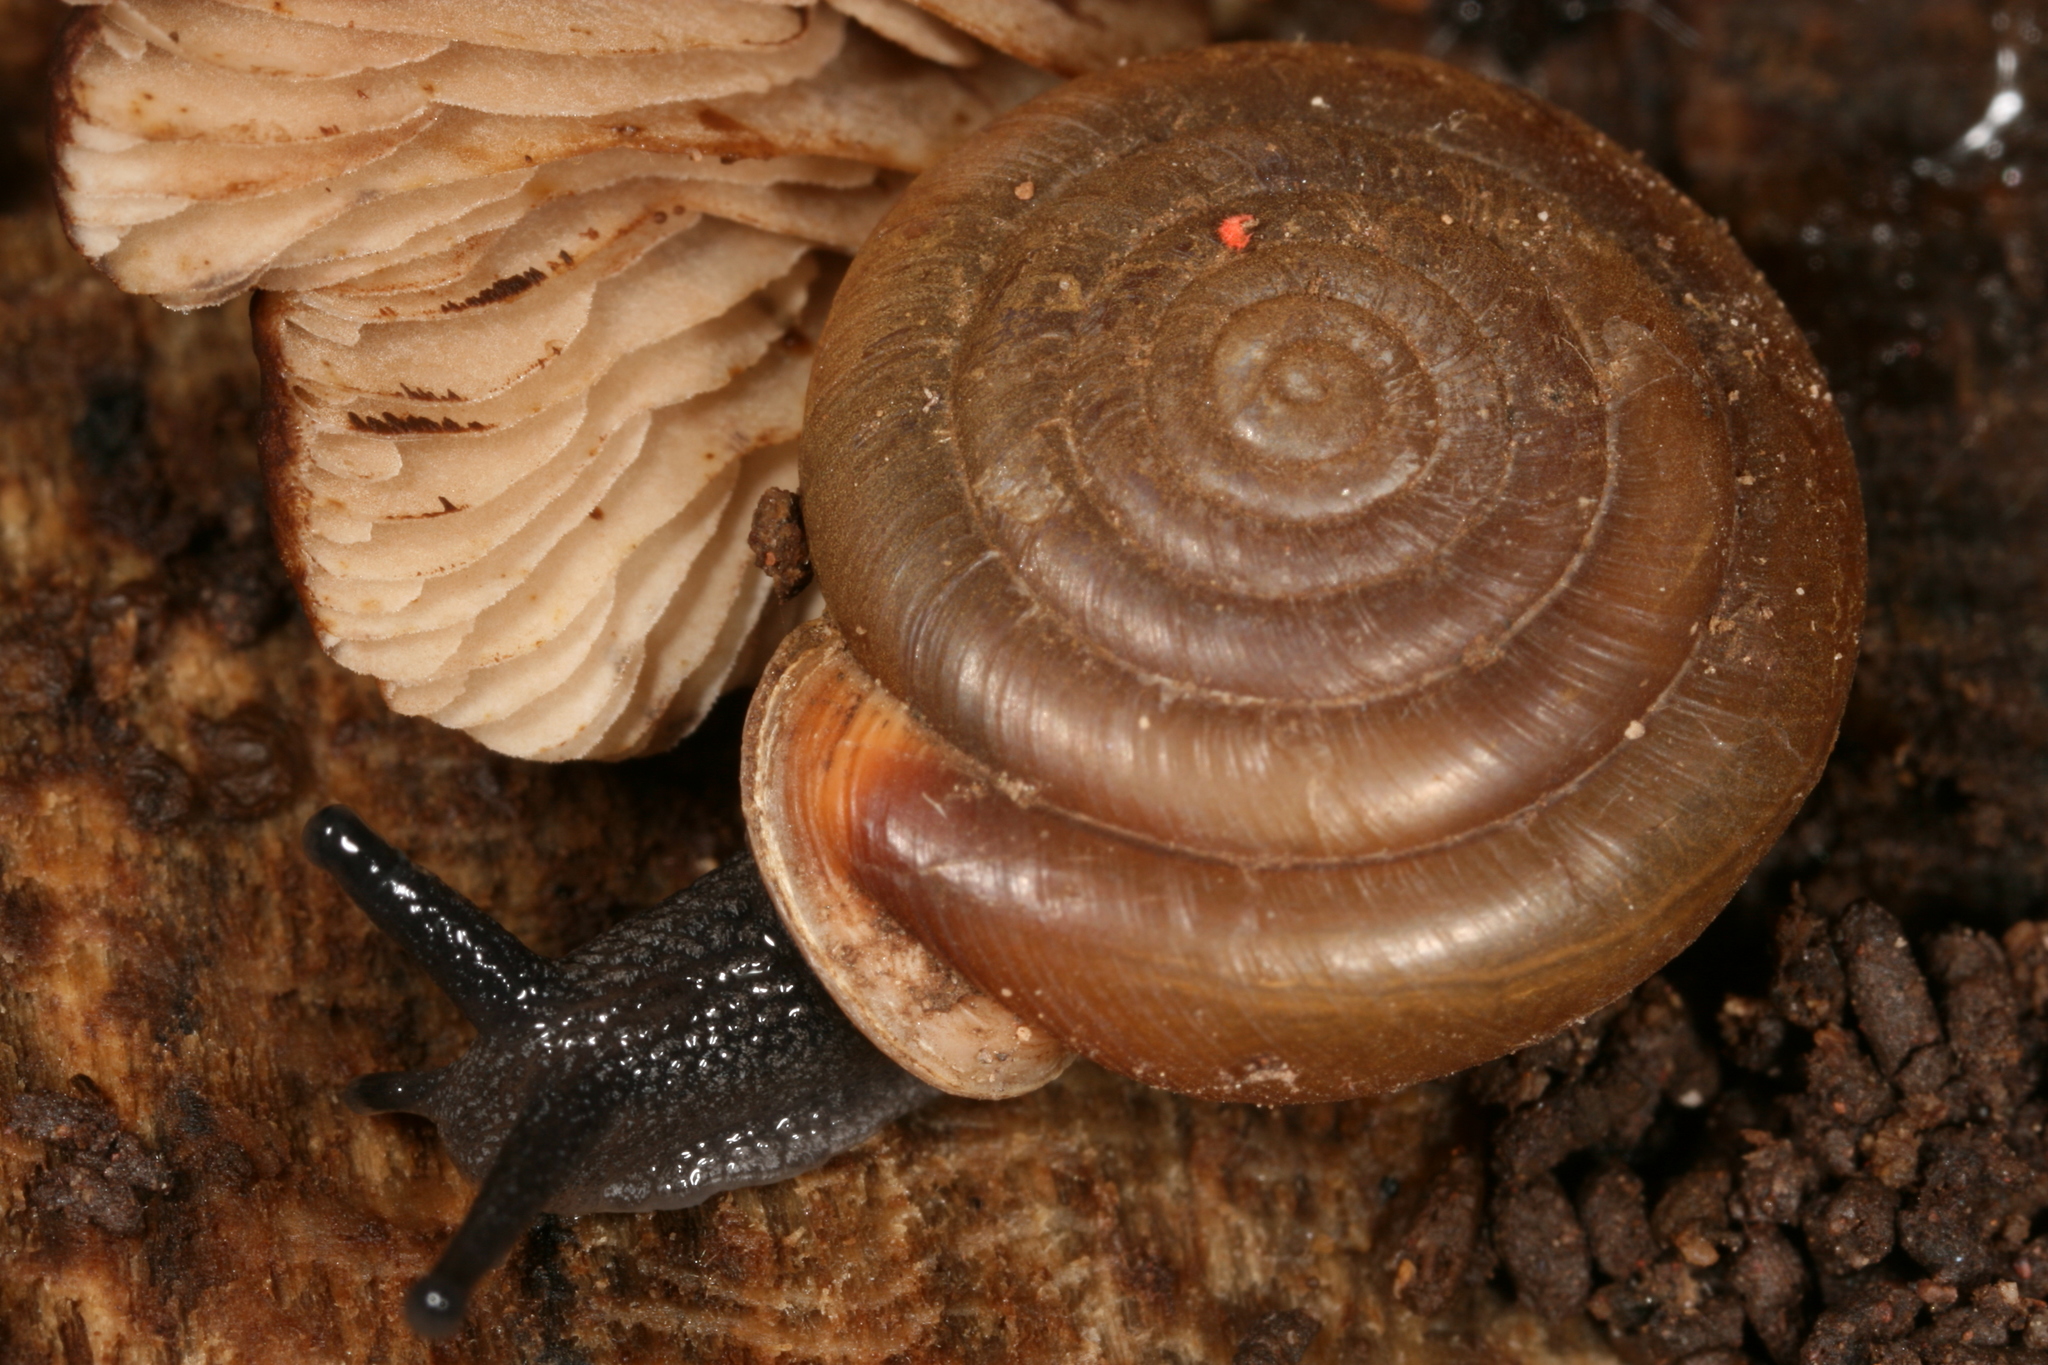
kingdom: Animalia
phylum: Mollusca
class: Gastropoda
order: Stylommatophora
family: Polygyridae
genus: Ashmunella
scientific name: Ashmunella levettei
